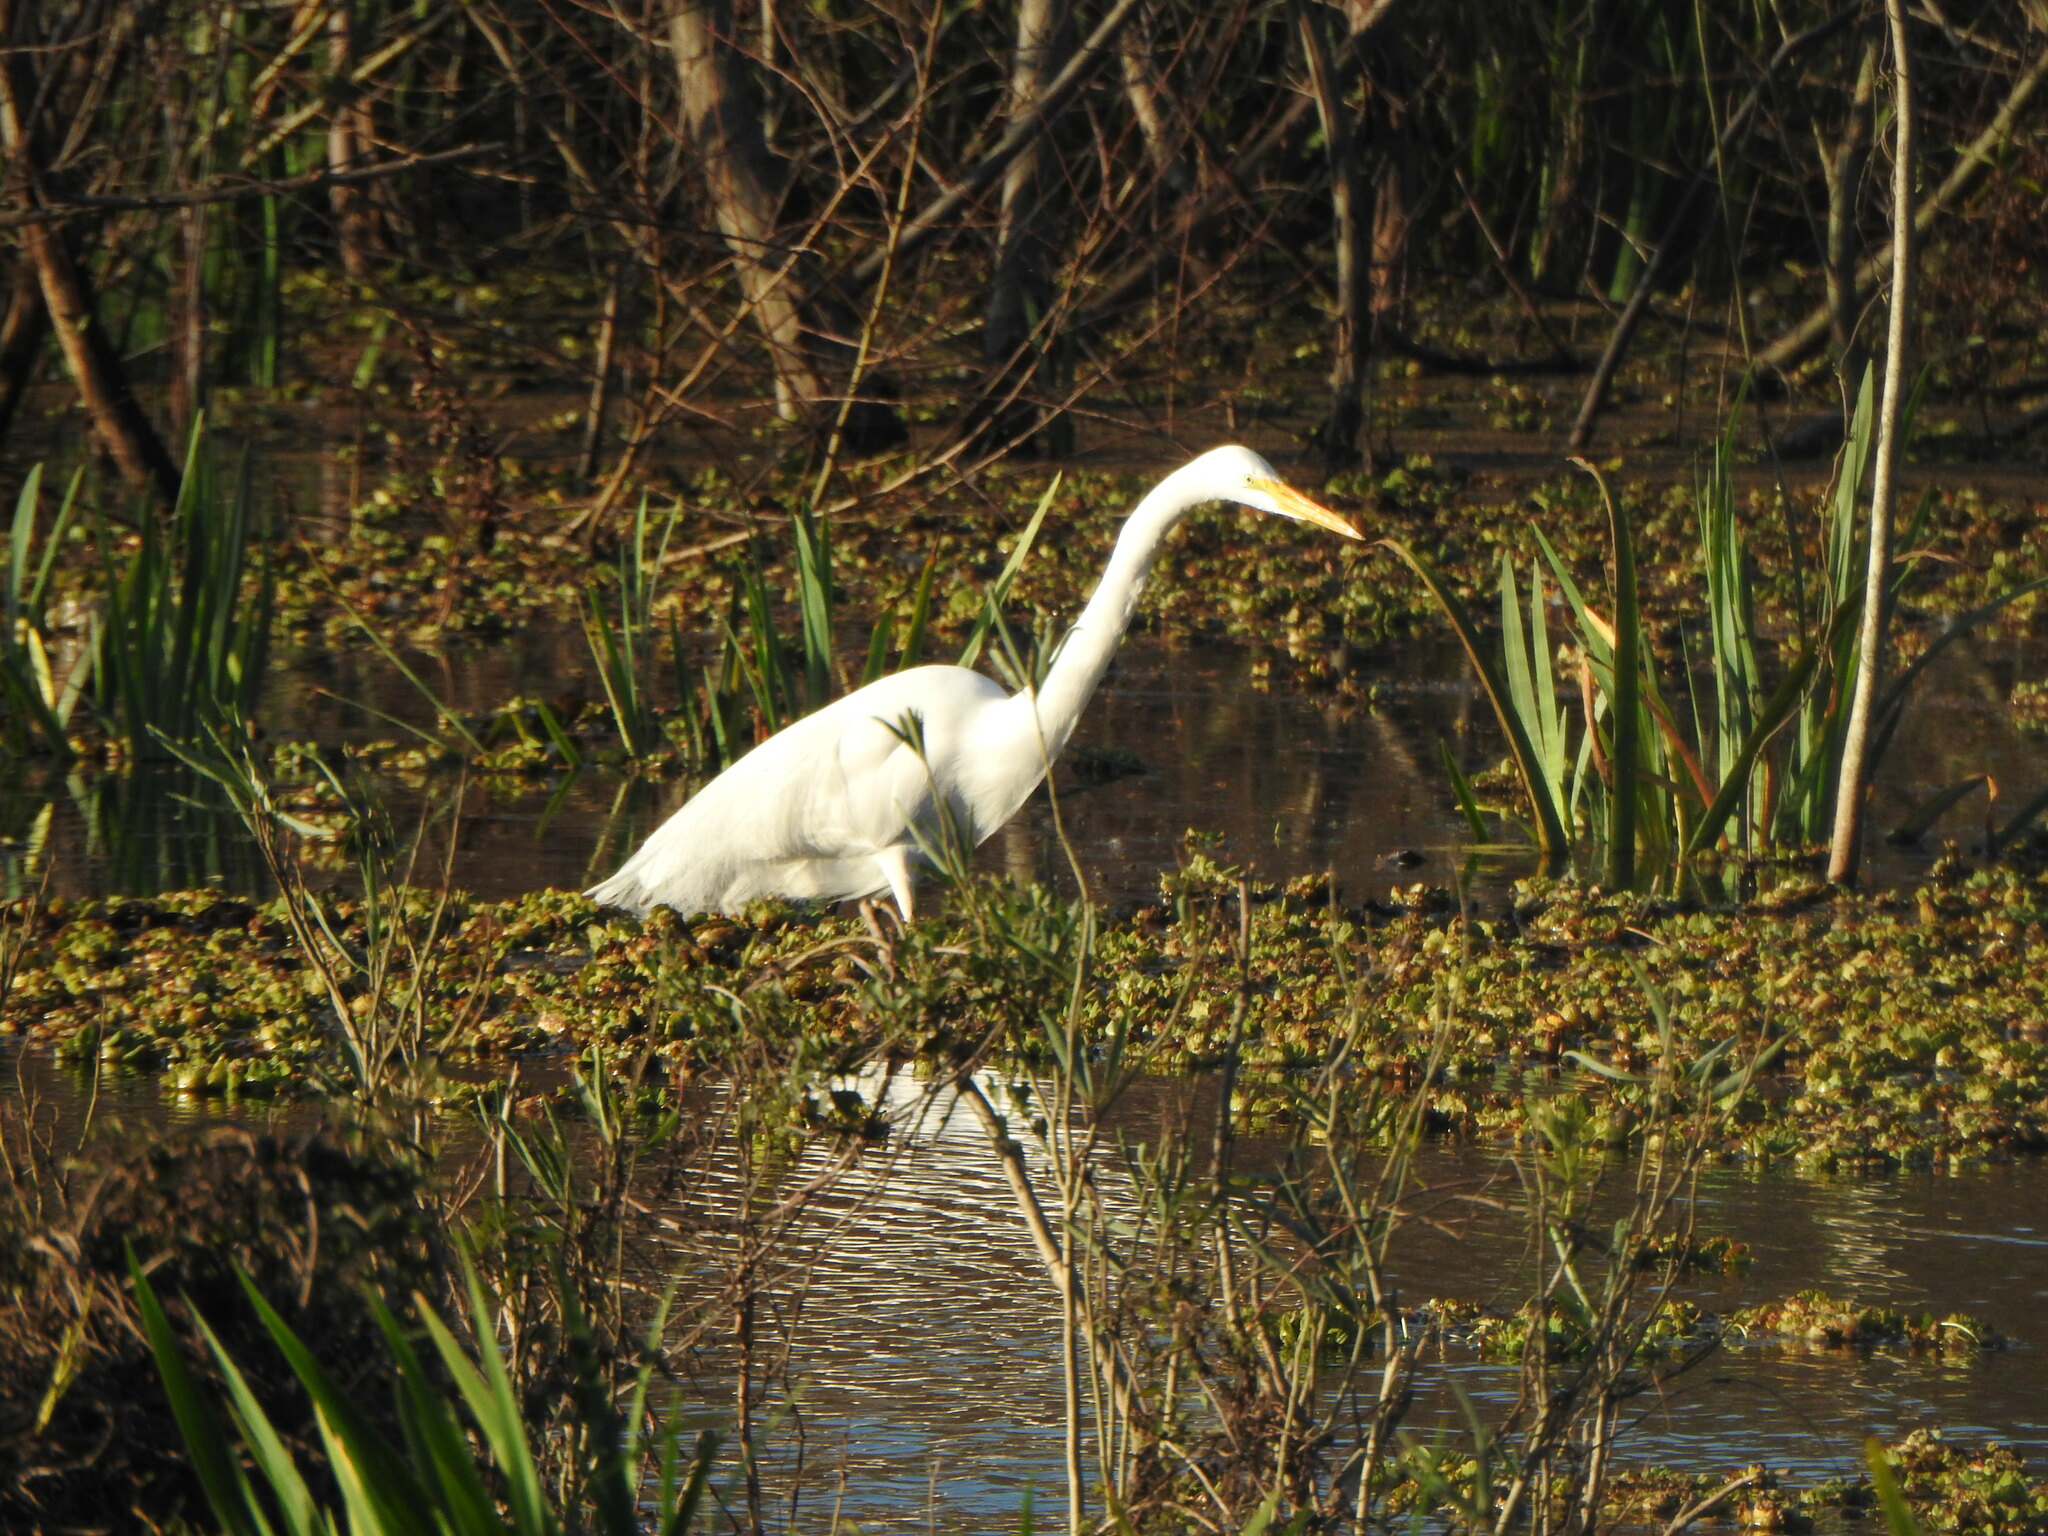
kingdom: Animalia
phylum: Chordata
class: Aves
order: Pelecaniformes
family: Ardeidae
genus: Ardea
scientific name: Ardea alba
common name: Great egret
